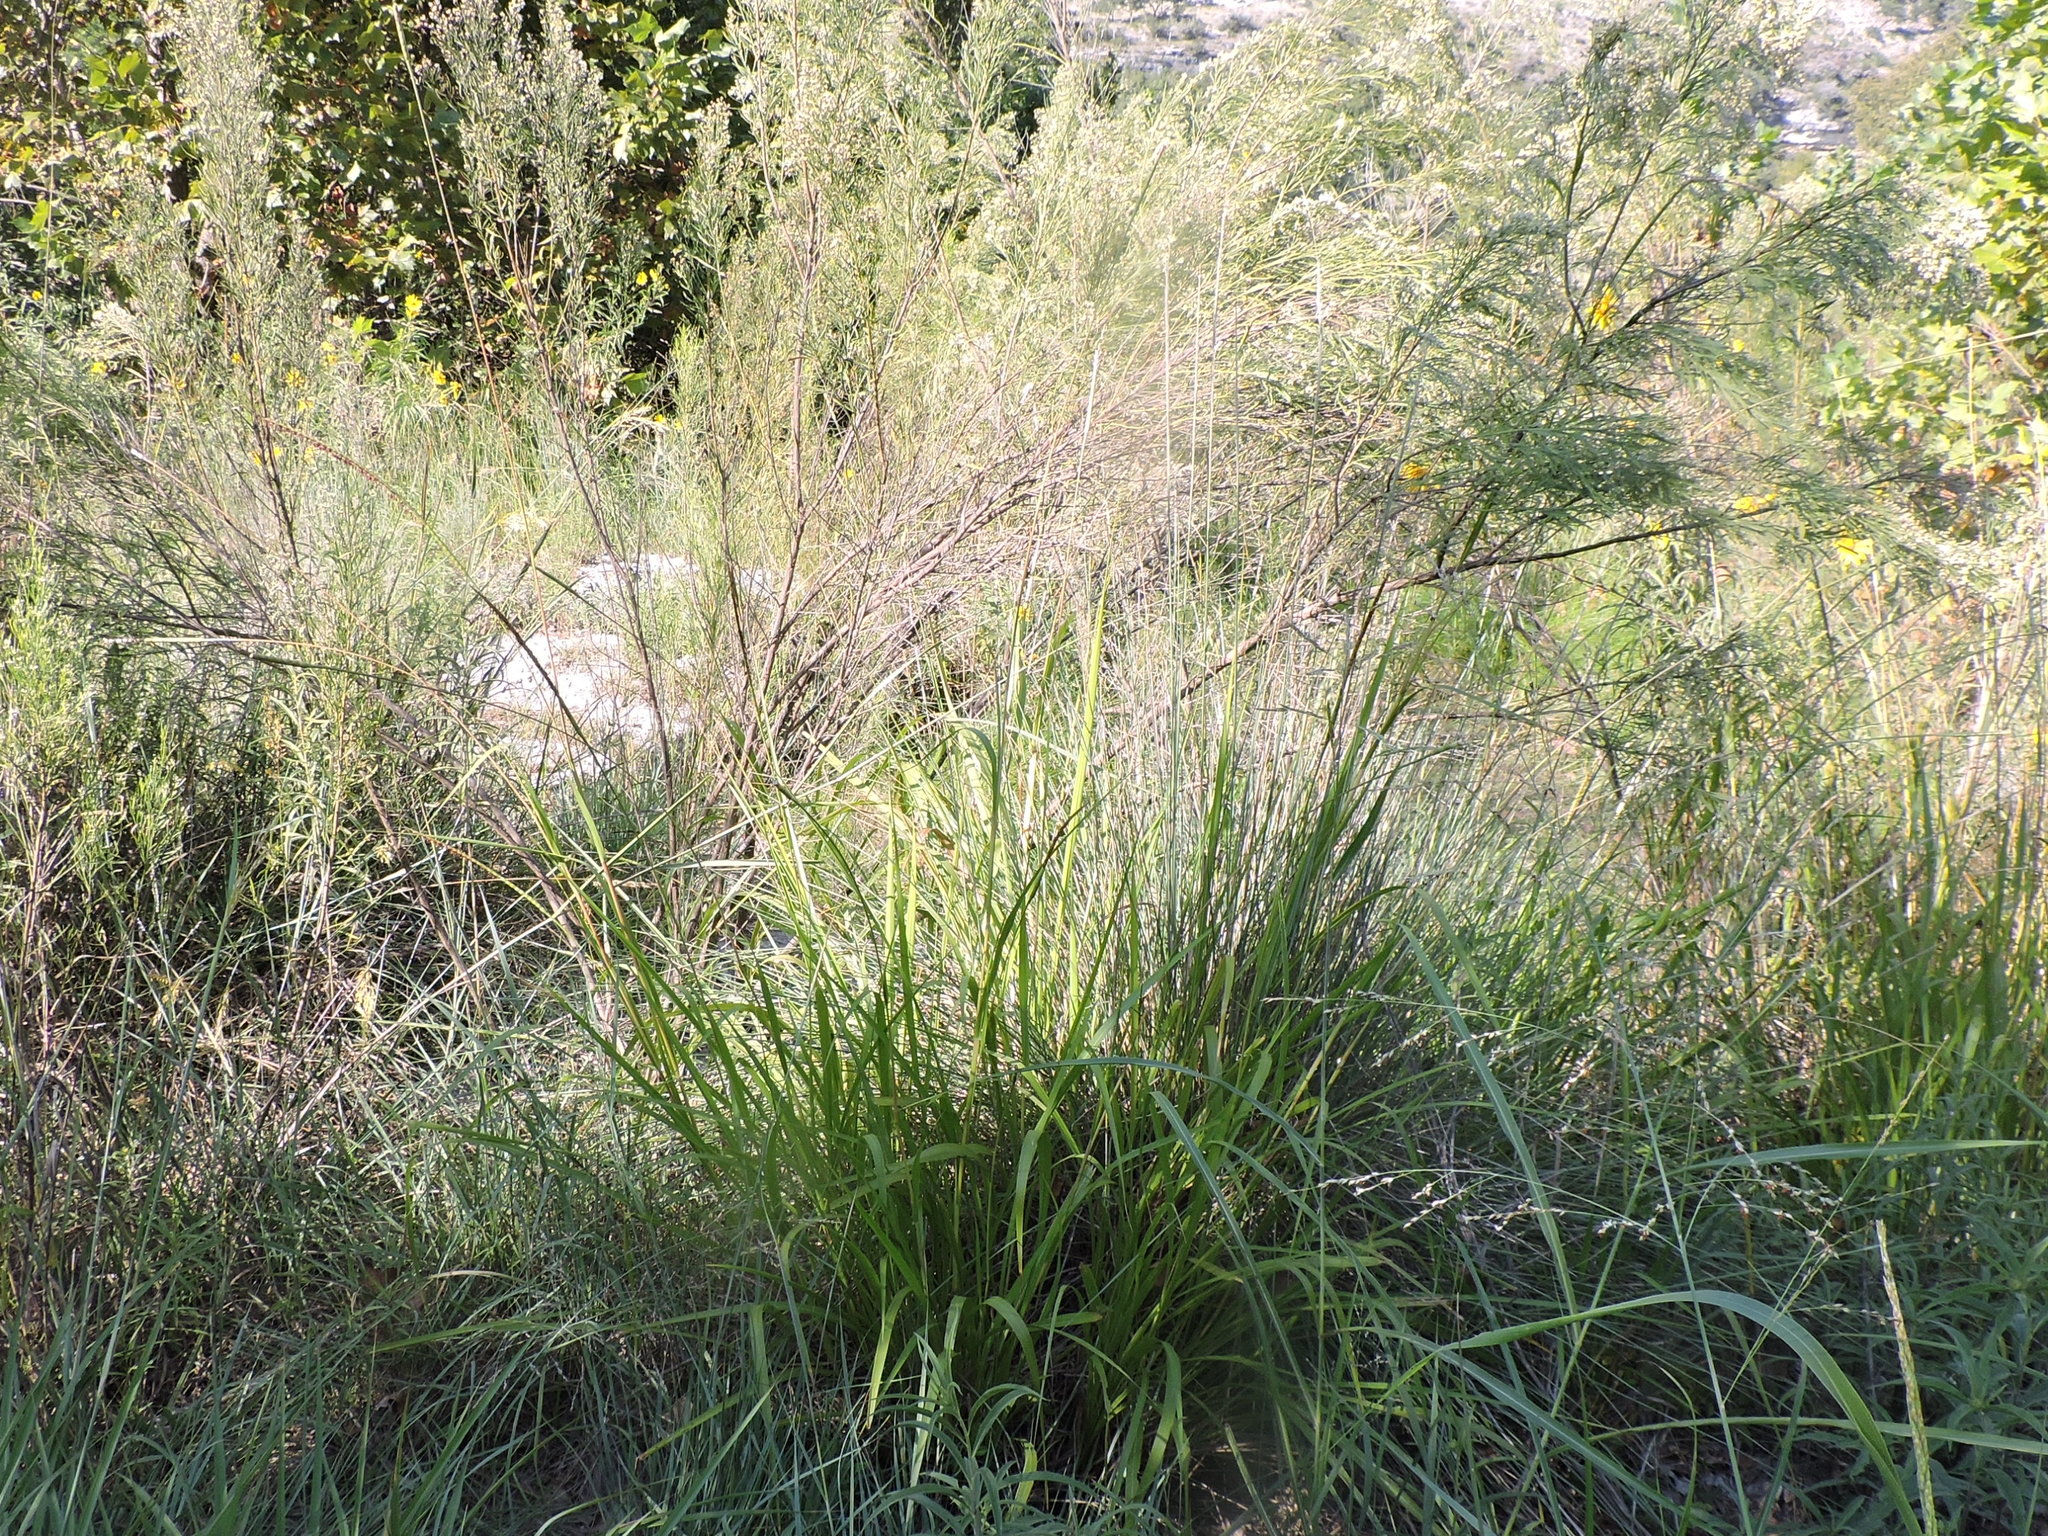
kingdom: Plantae
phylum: Tracheophyta
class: Liliopsida
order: Poales
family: Poaceae
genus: Tripsacum
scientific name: Tripsacum dactyloides
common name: Buffalo-grass
